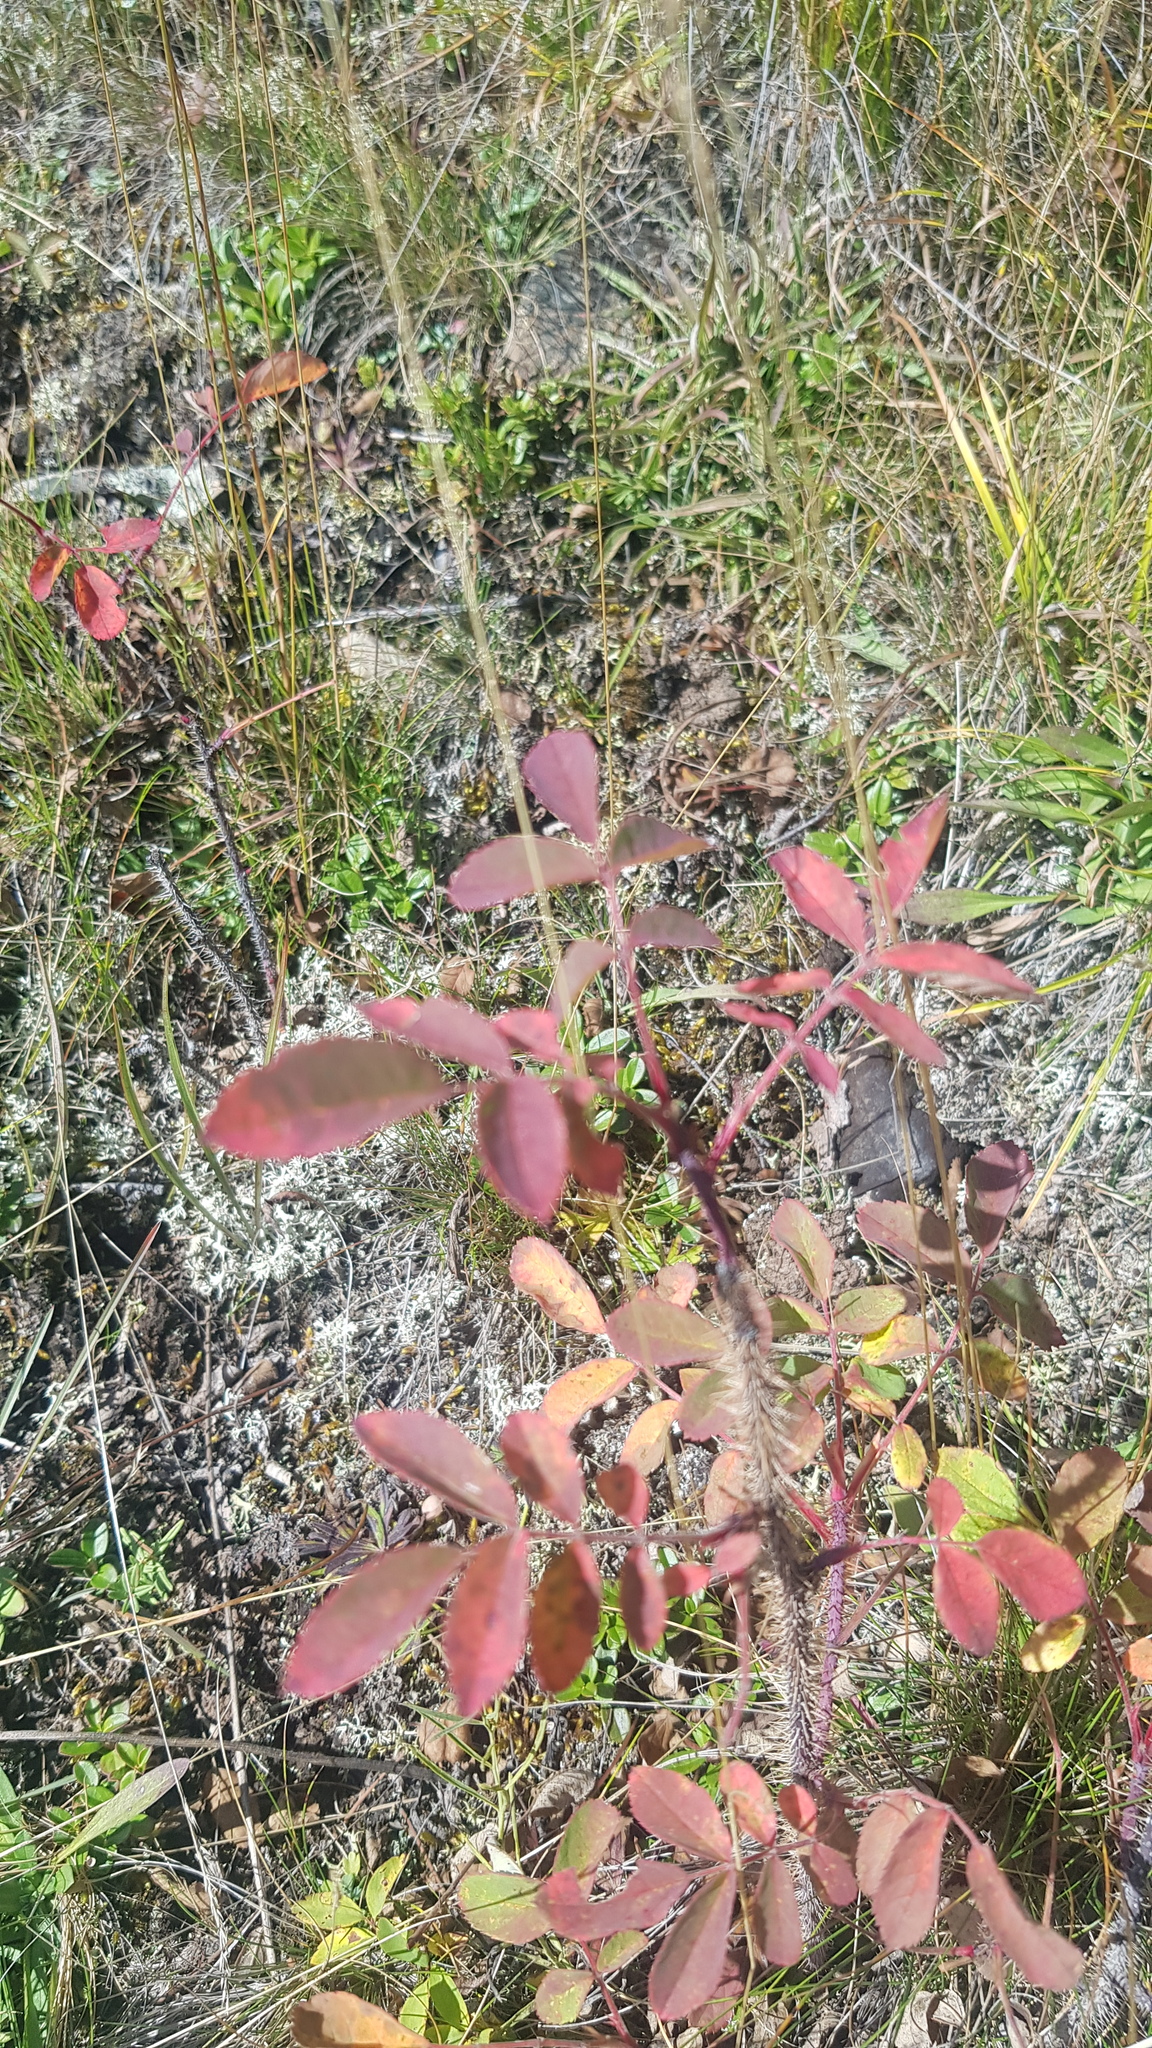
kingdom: Plantae
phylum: Tracheophyta
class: Magnoliopsida
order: Rosales
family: Rosaceae
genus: Rosa
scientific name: Rosa acicularis
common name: Prickly rose
